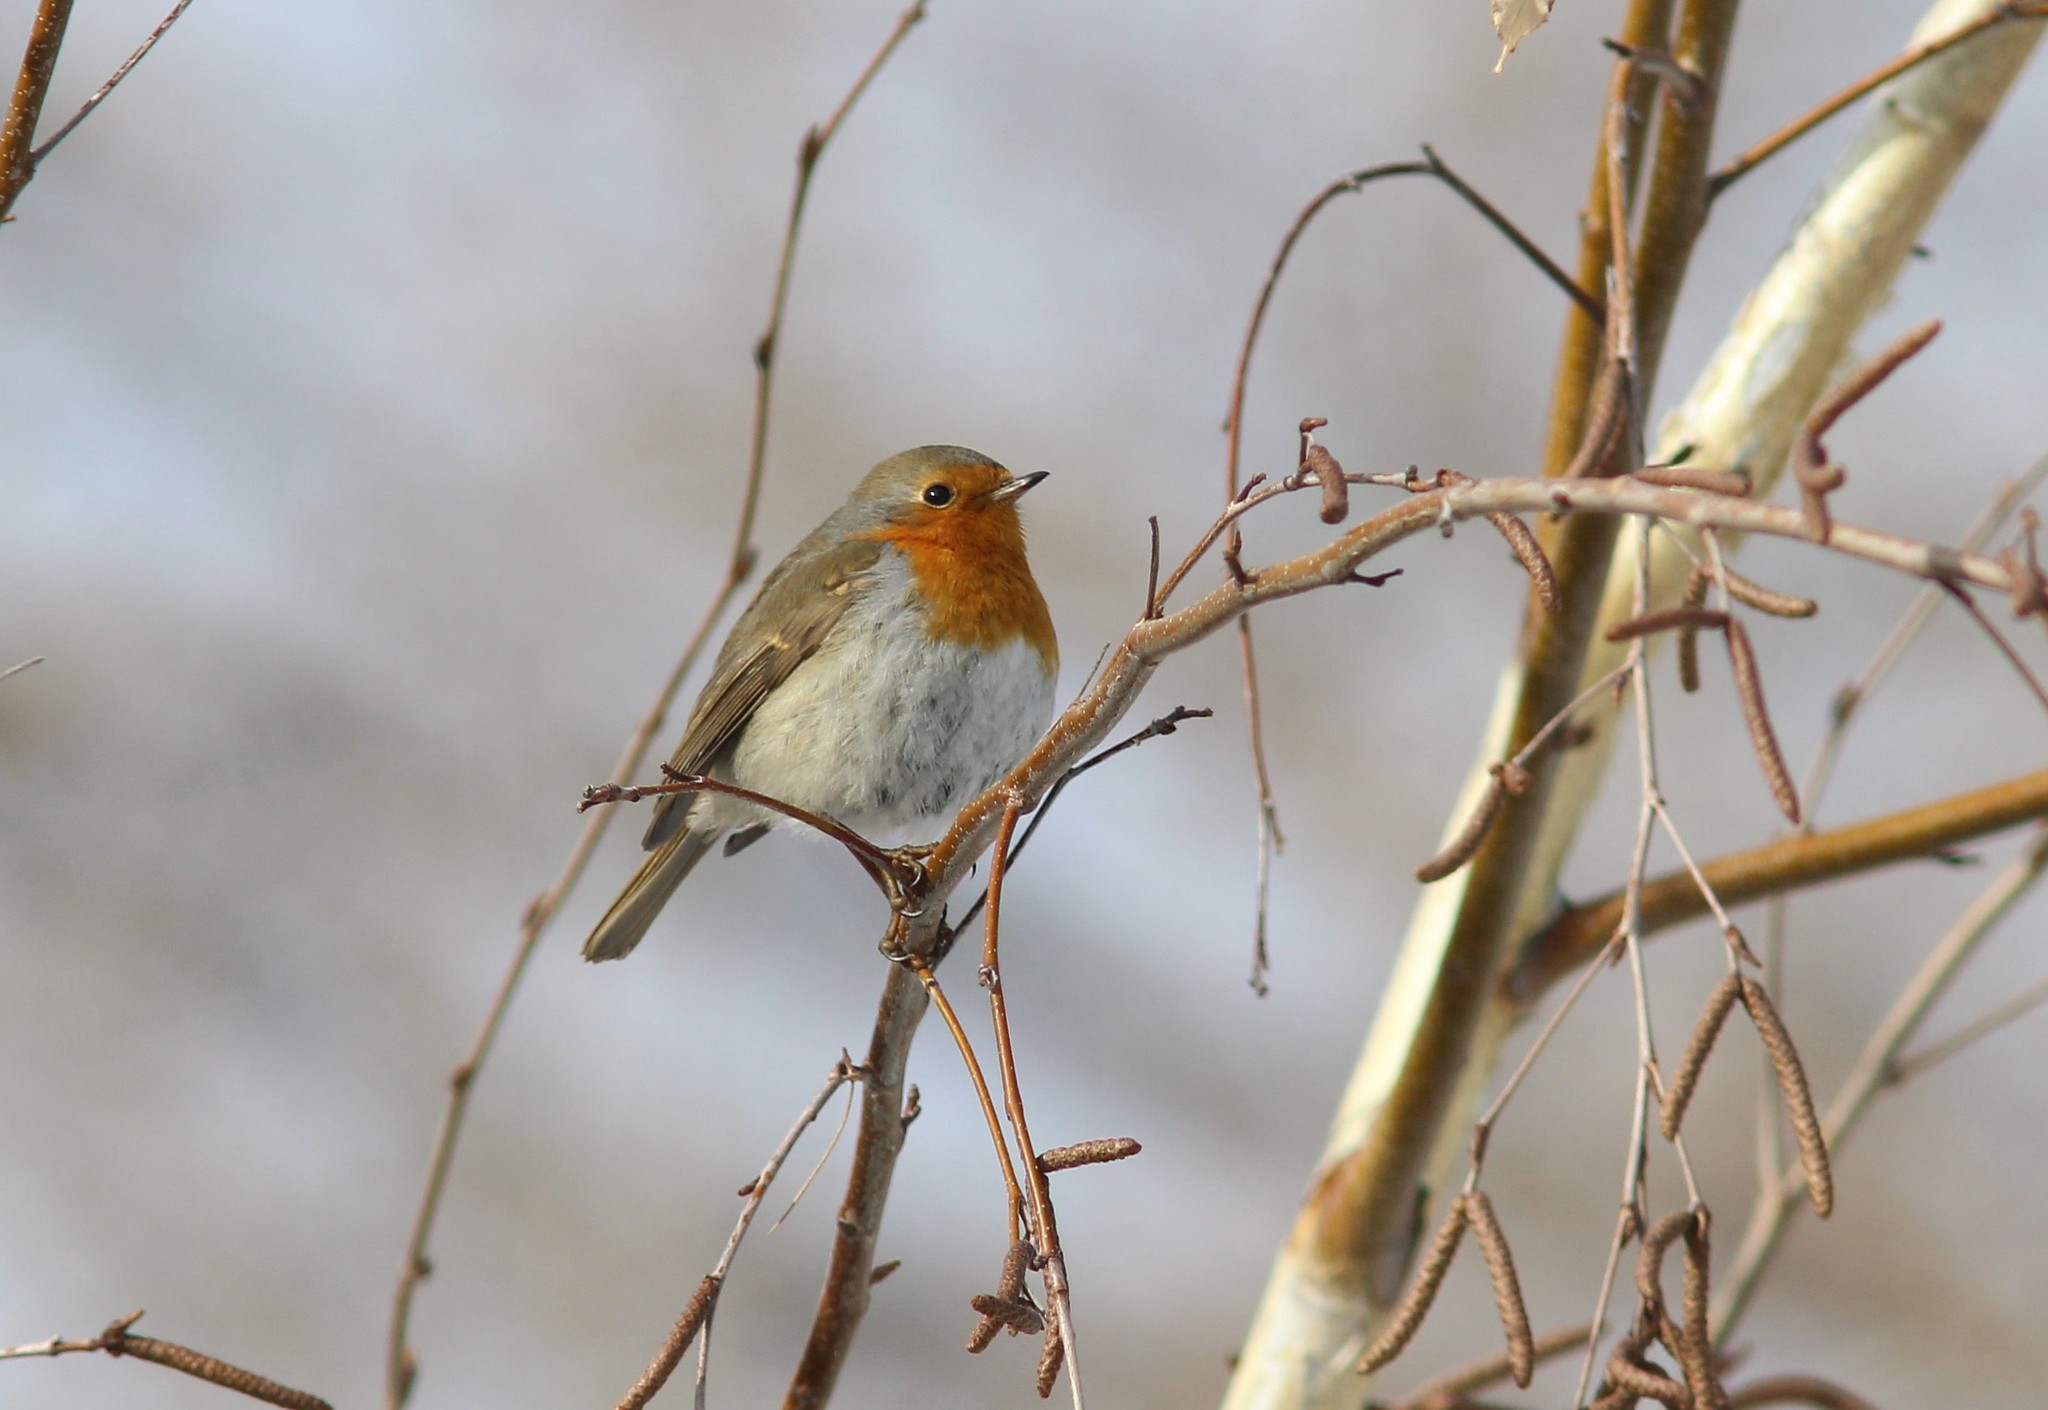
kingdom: Animalia
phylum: Chordata
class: Aves
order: Passeriformes
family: Muscicapidae
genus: Erithacus
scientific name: Erithacus rubecula
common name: European robin
